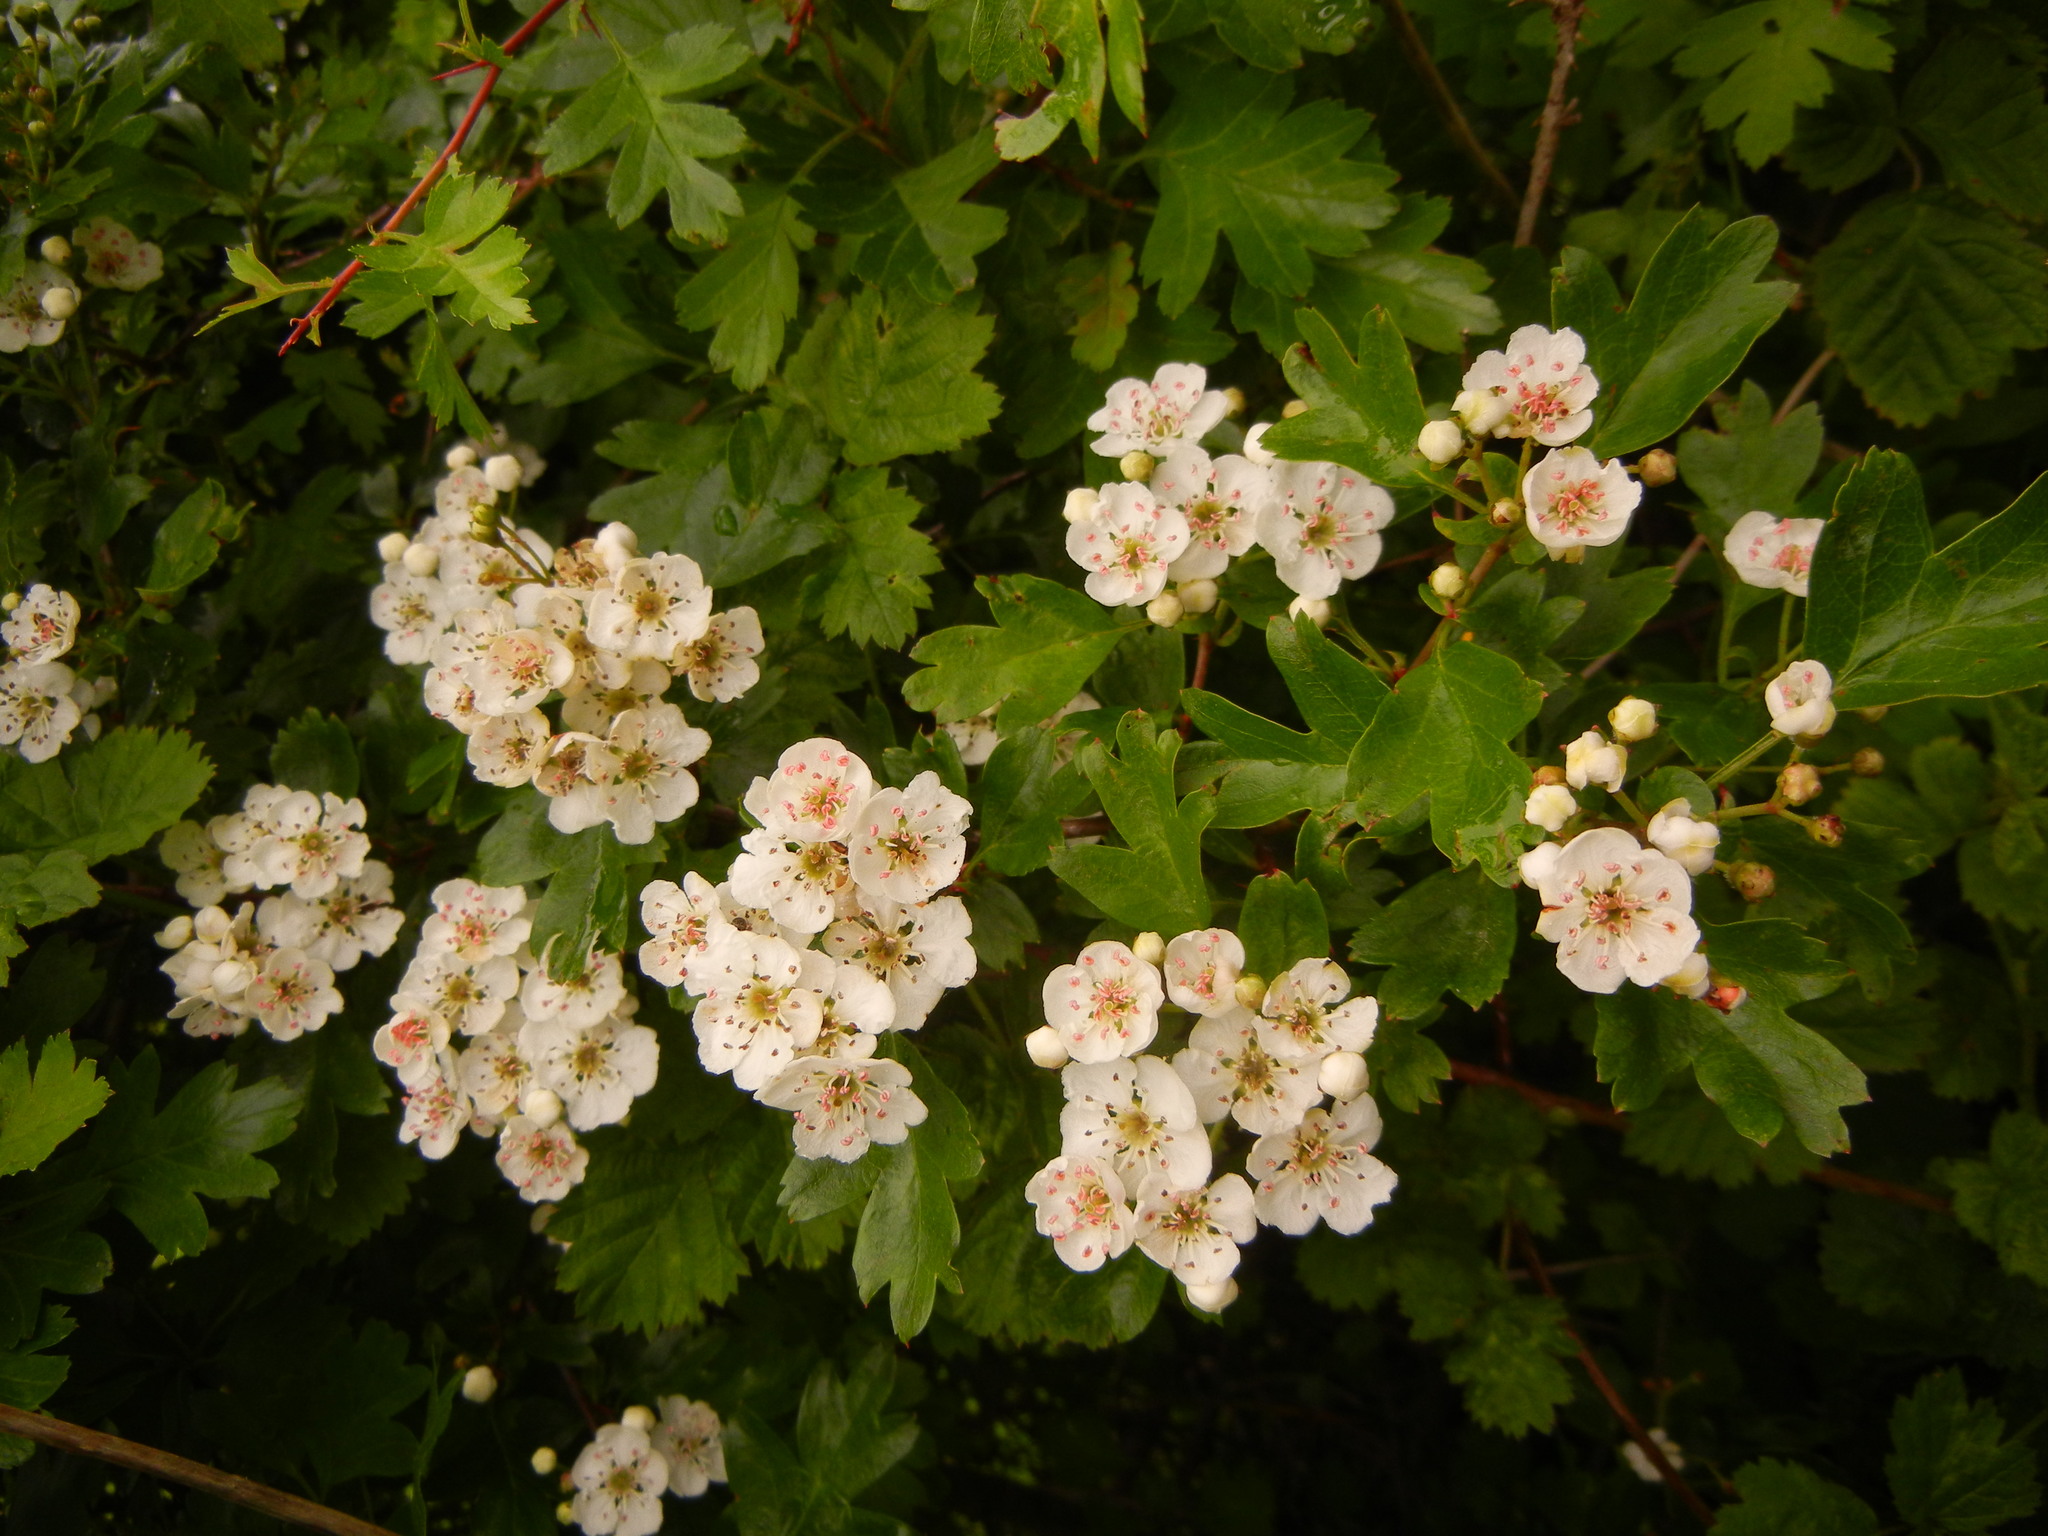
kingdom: Plantae
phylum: Tracheophyta
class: Magnoliopsida
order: Rosales
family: Rosaceae
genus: Crataegus
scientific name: Crataegus monogyna
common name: Hawthorn
